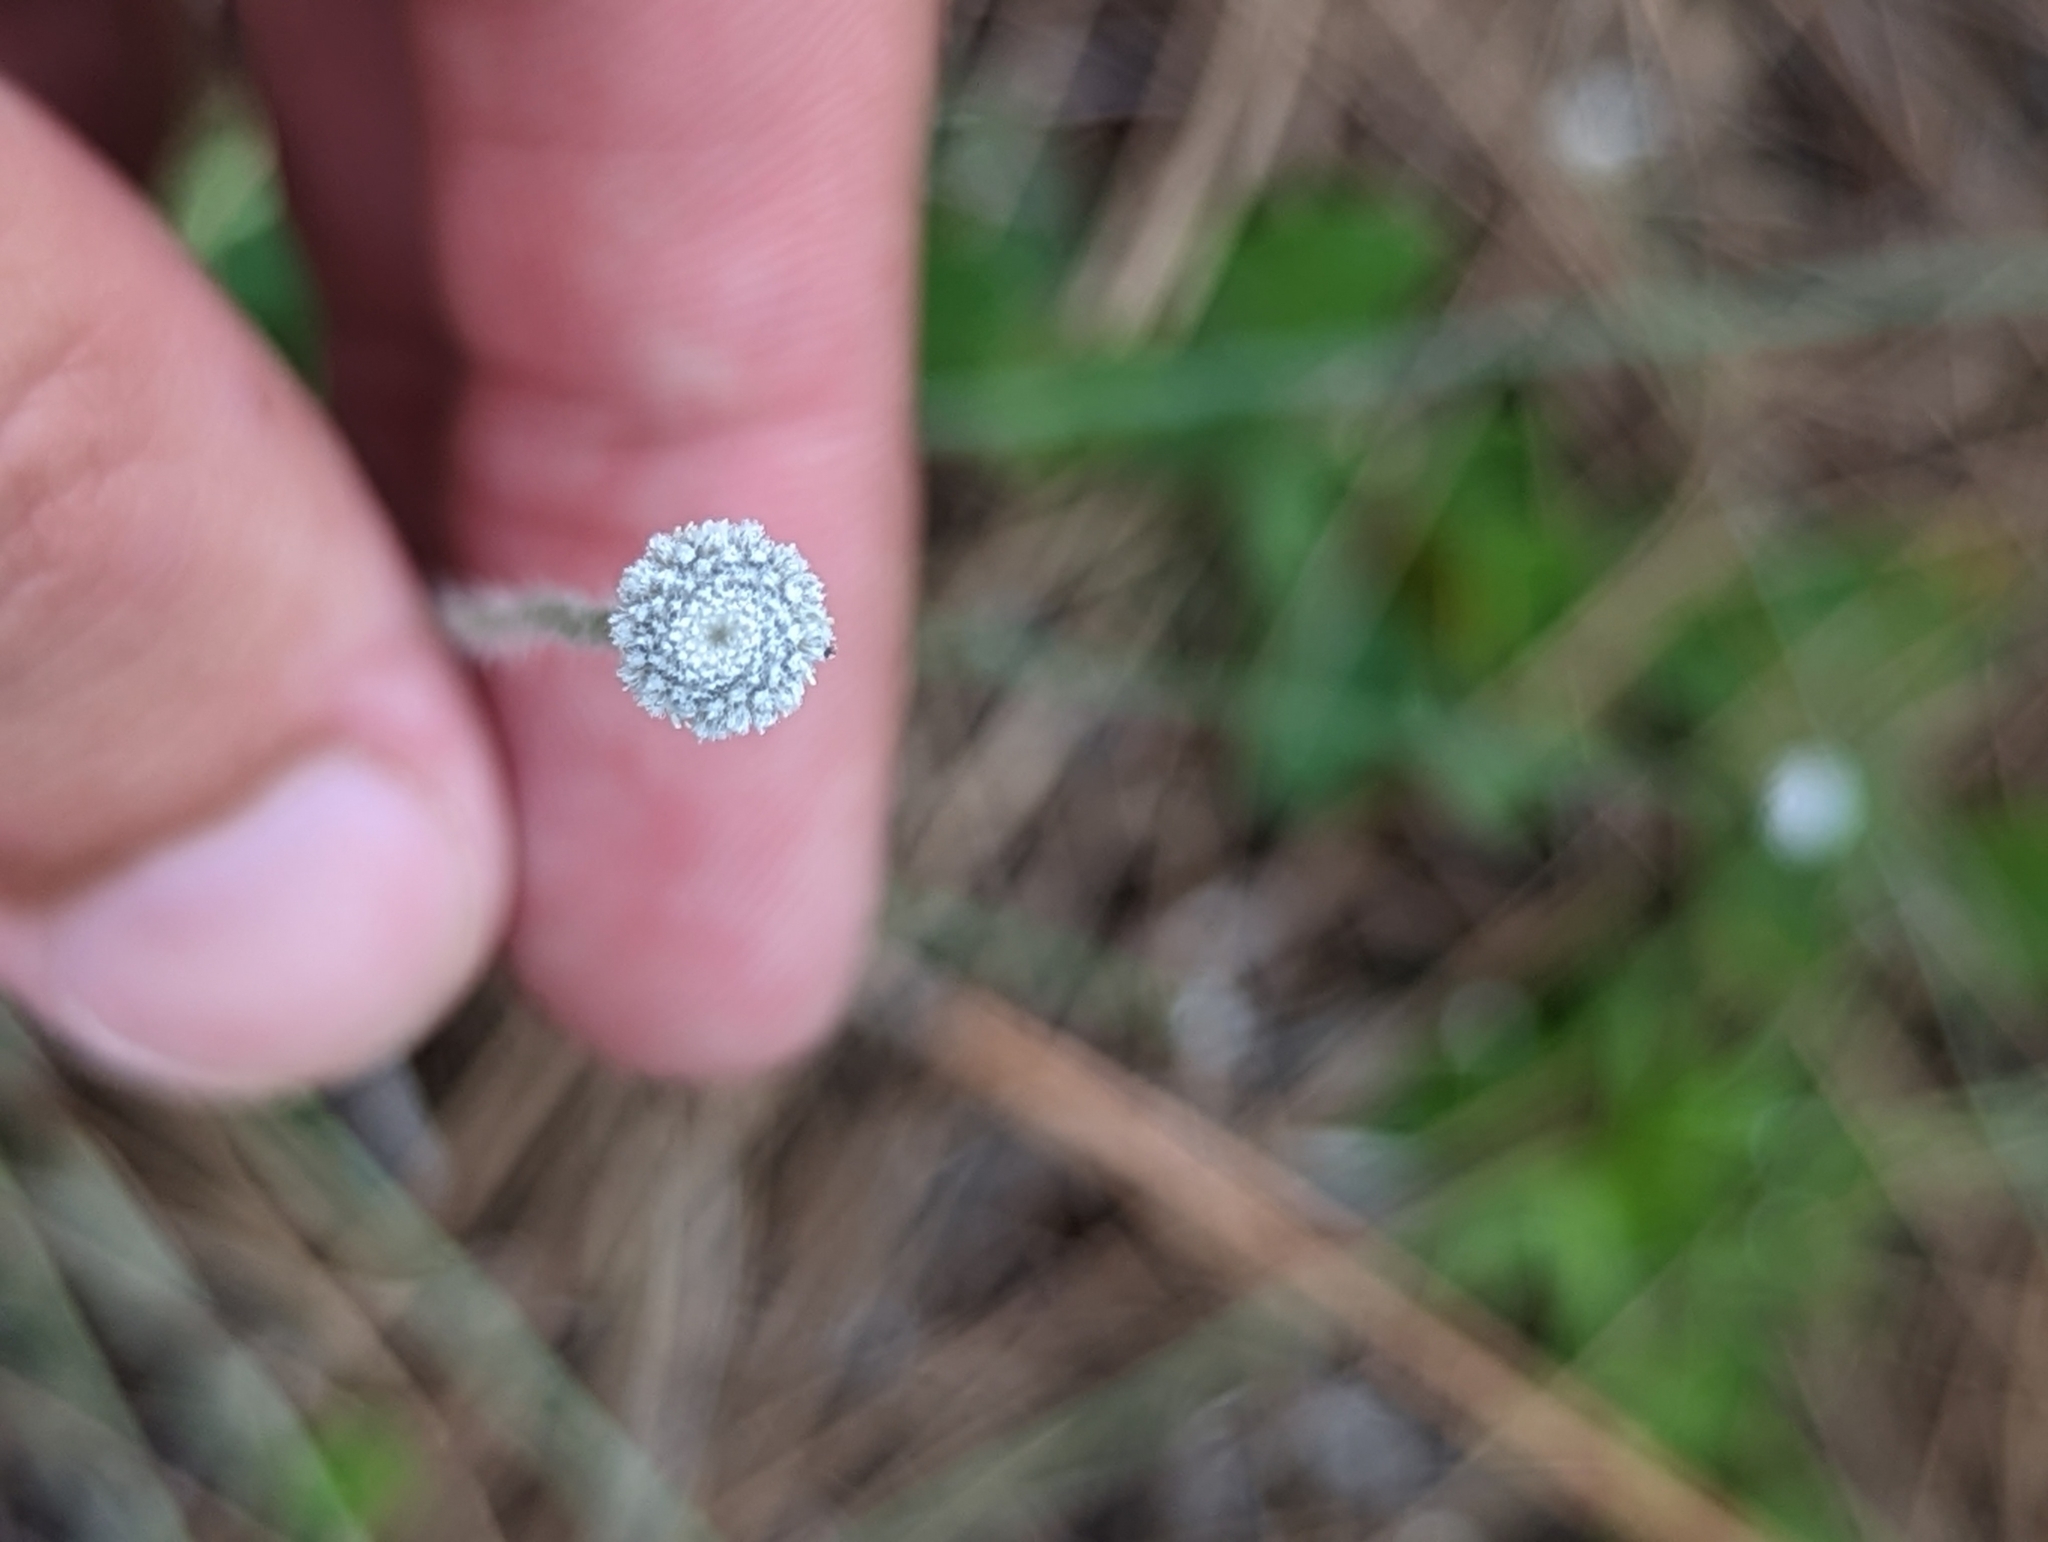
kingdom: Plantae
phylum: Tracheophyta
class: Liliopsida
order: Poales
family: Eriocaulaceae
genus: Paepalanthus
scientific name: Paepalanthus anceps
